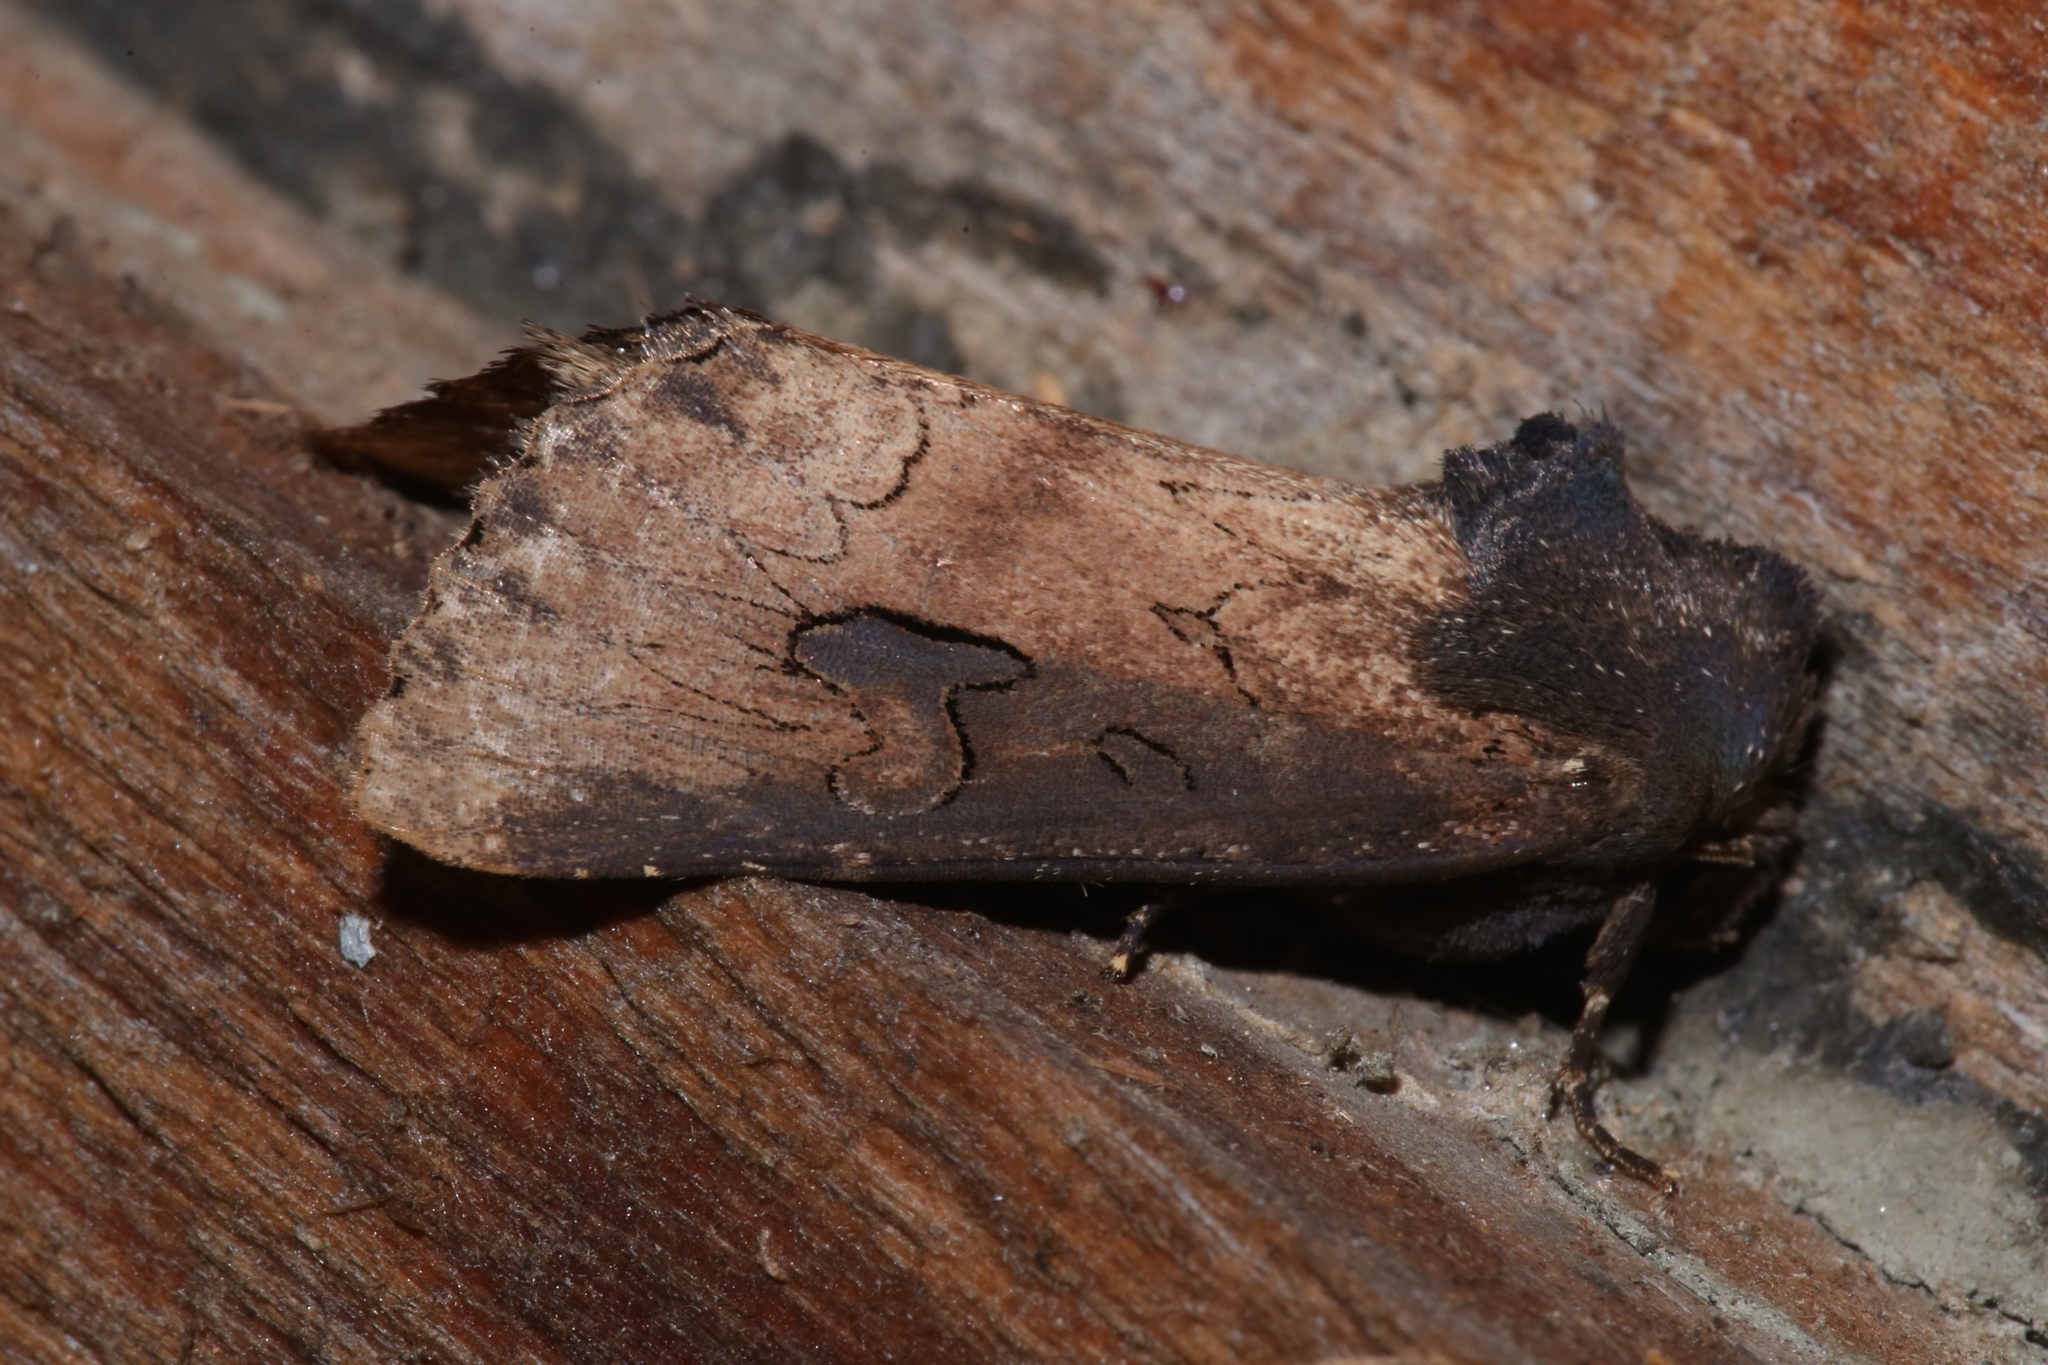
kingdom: Animalia
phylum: Arthropoda
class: Insecta
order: Lepidoptera
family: Noctuidae
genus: Macronoctua
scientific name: Macronoctua onusta
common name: Iris borer
